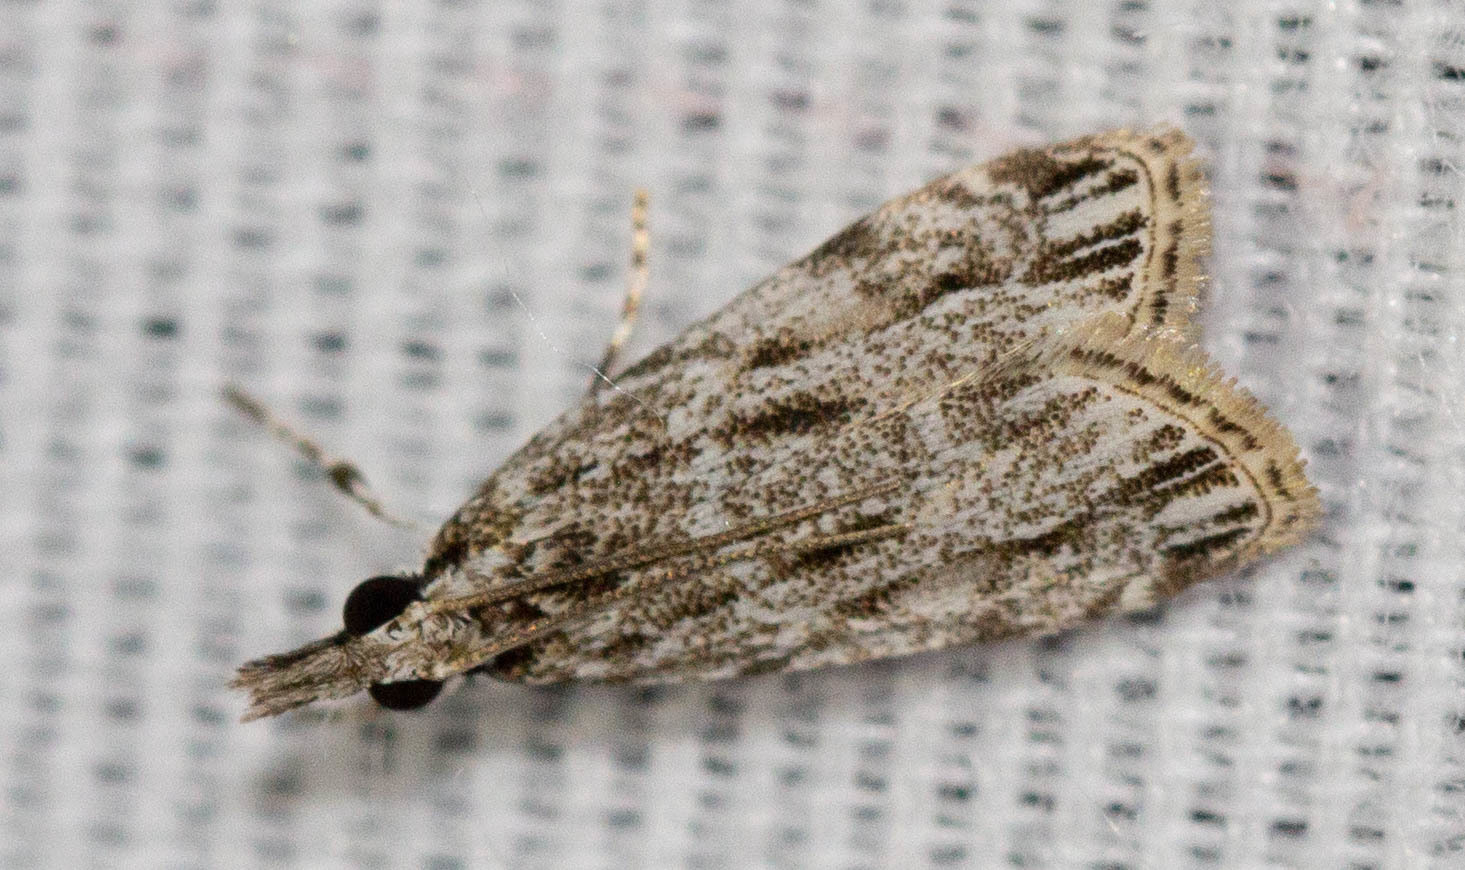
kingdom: Animalia
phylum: Arthropoda
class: Insecta
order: Lepidoptera
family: Crambidae
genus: Eudonia
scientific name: Eudonia strigalis
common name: Striped eudonia moth
